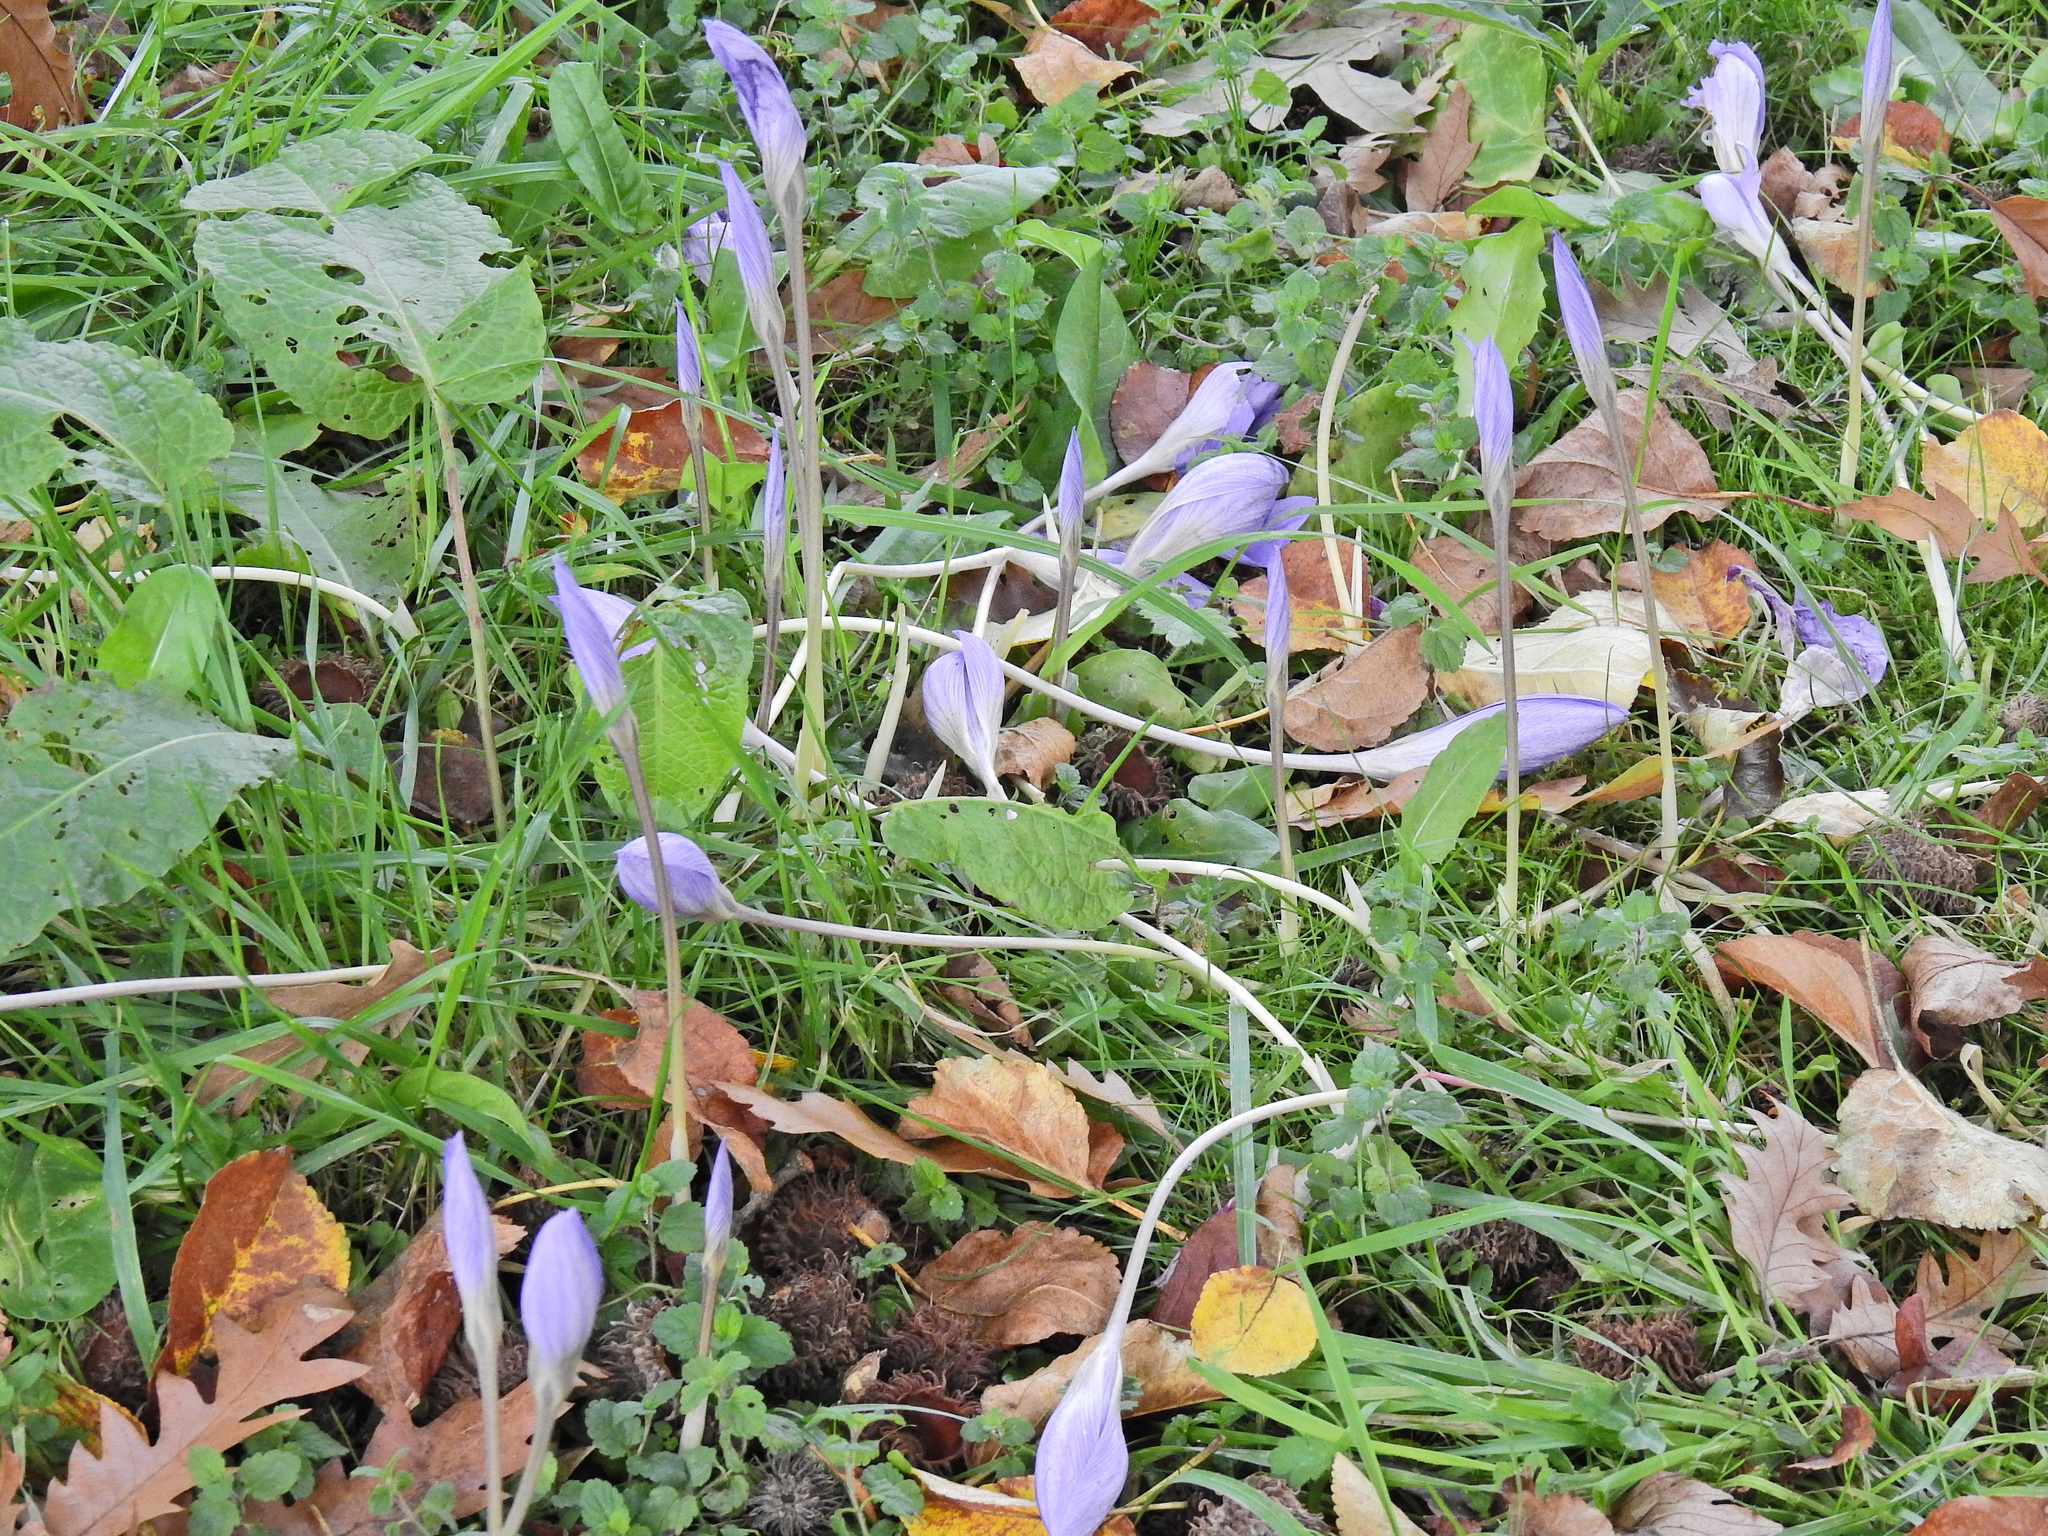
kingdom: Plantae
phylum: Tracheophyta
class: Liliopsida
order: Asparagales
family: Iridaceae
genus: Crocus
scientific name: Crocus speciosus
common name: Bieberstein's crocus
